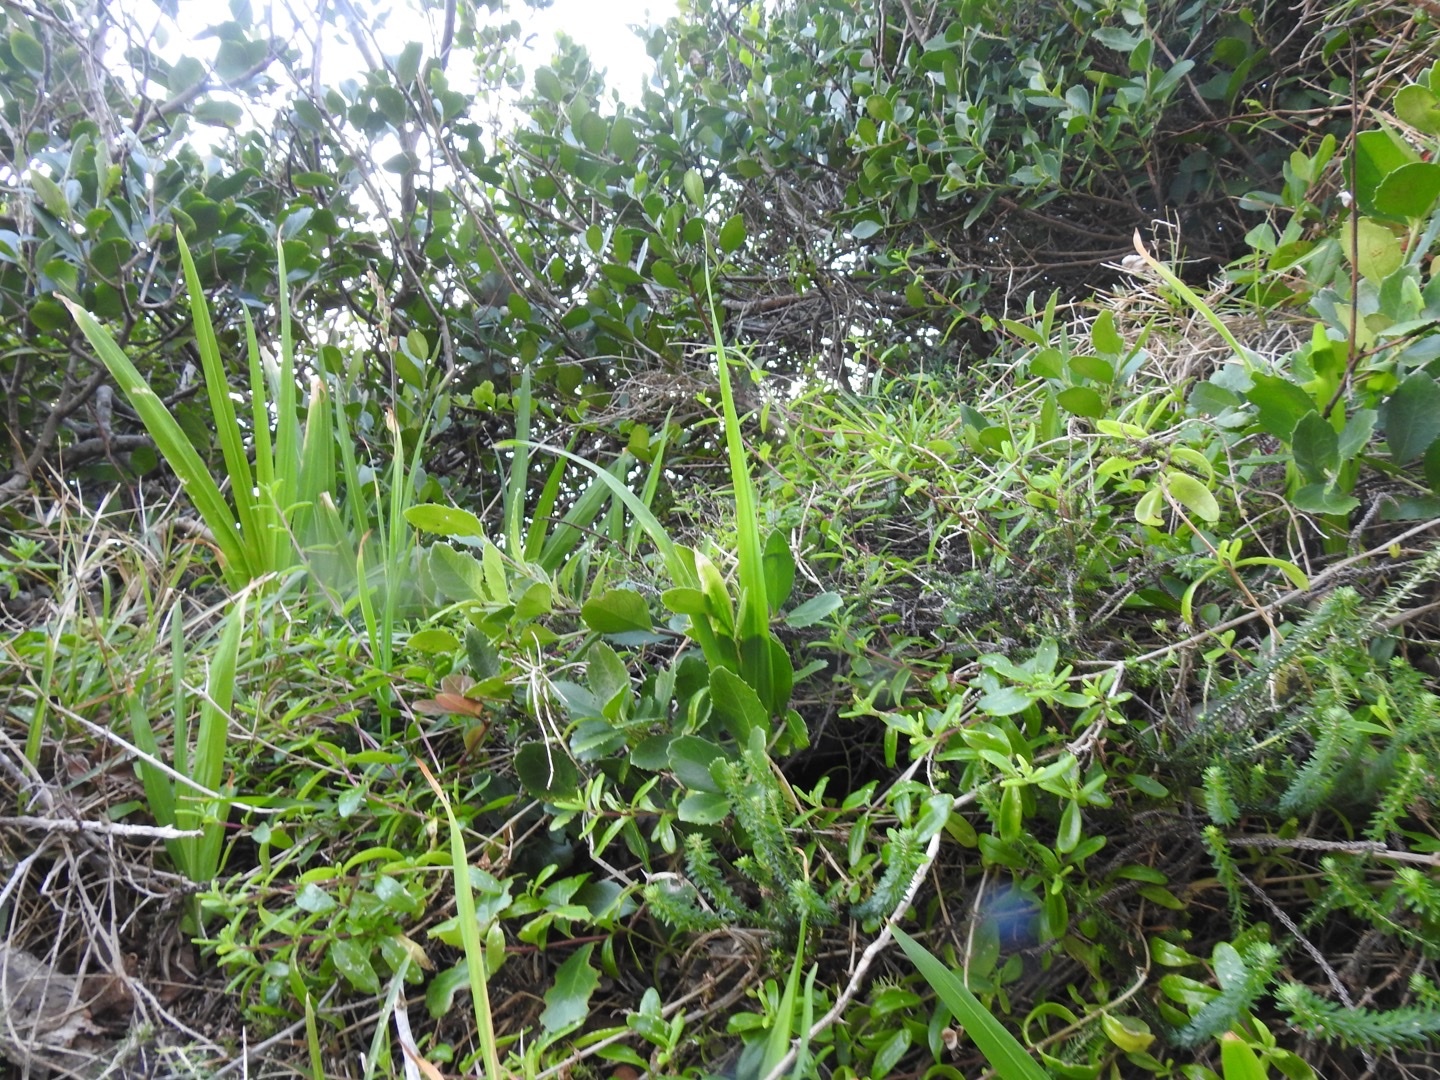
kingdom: Plantae
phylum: Tracheophyta
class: Liliopsida
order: Asparagales
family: Iridaceae
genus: Chasmanthe
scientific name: Chasmanthe aethiopica
